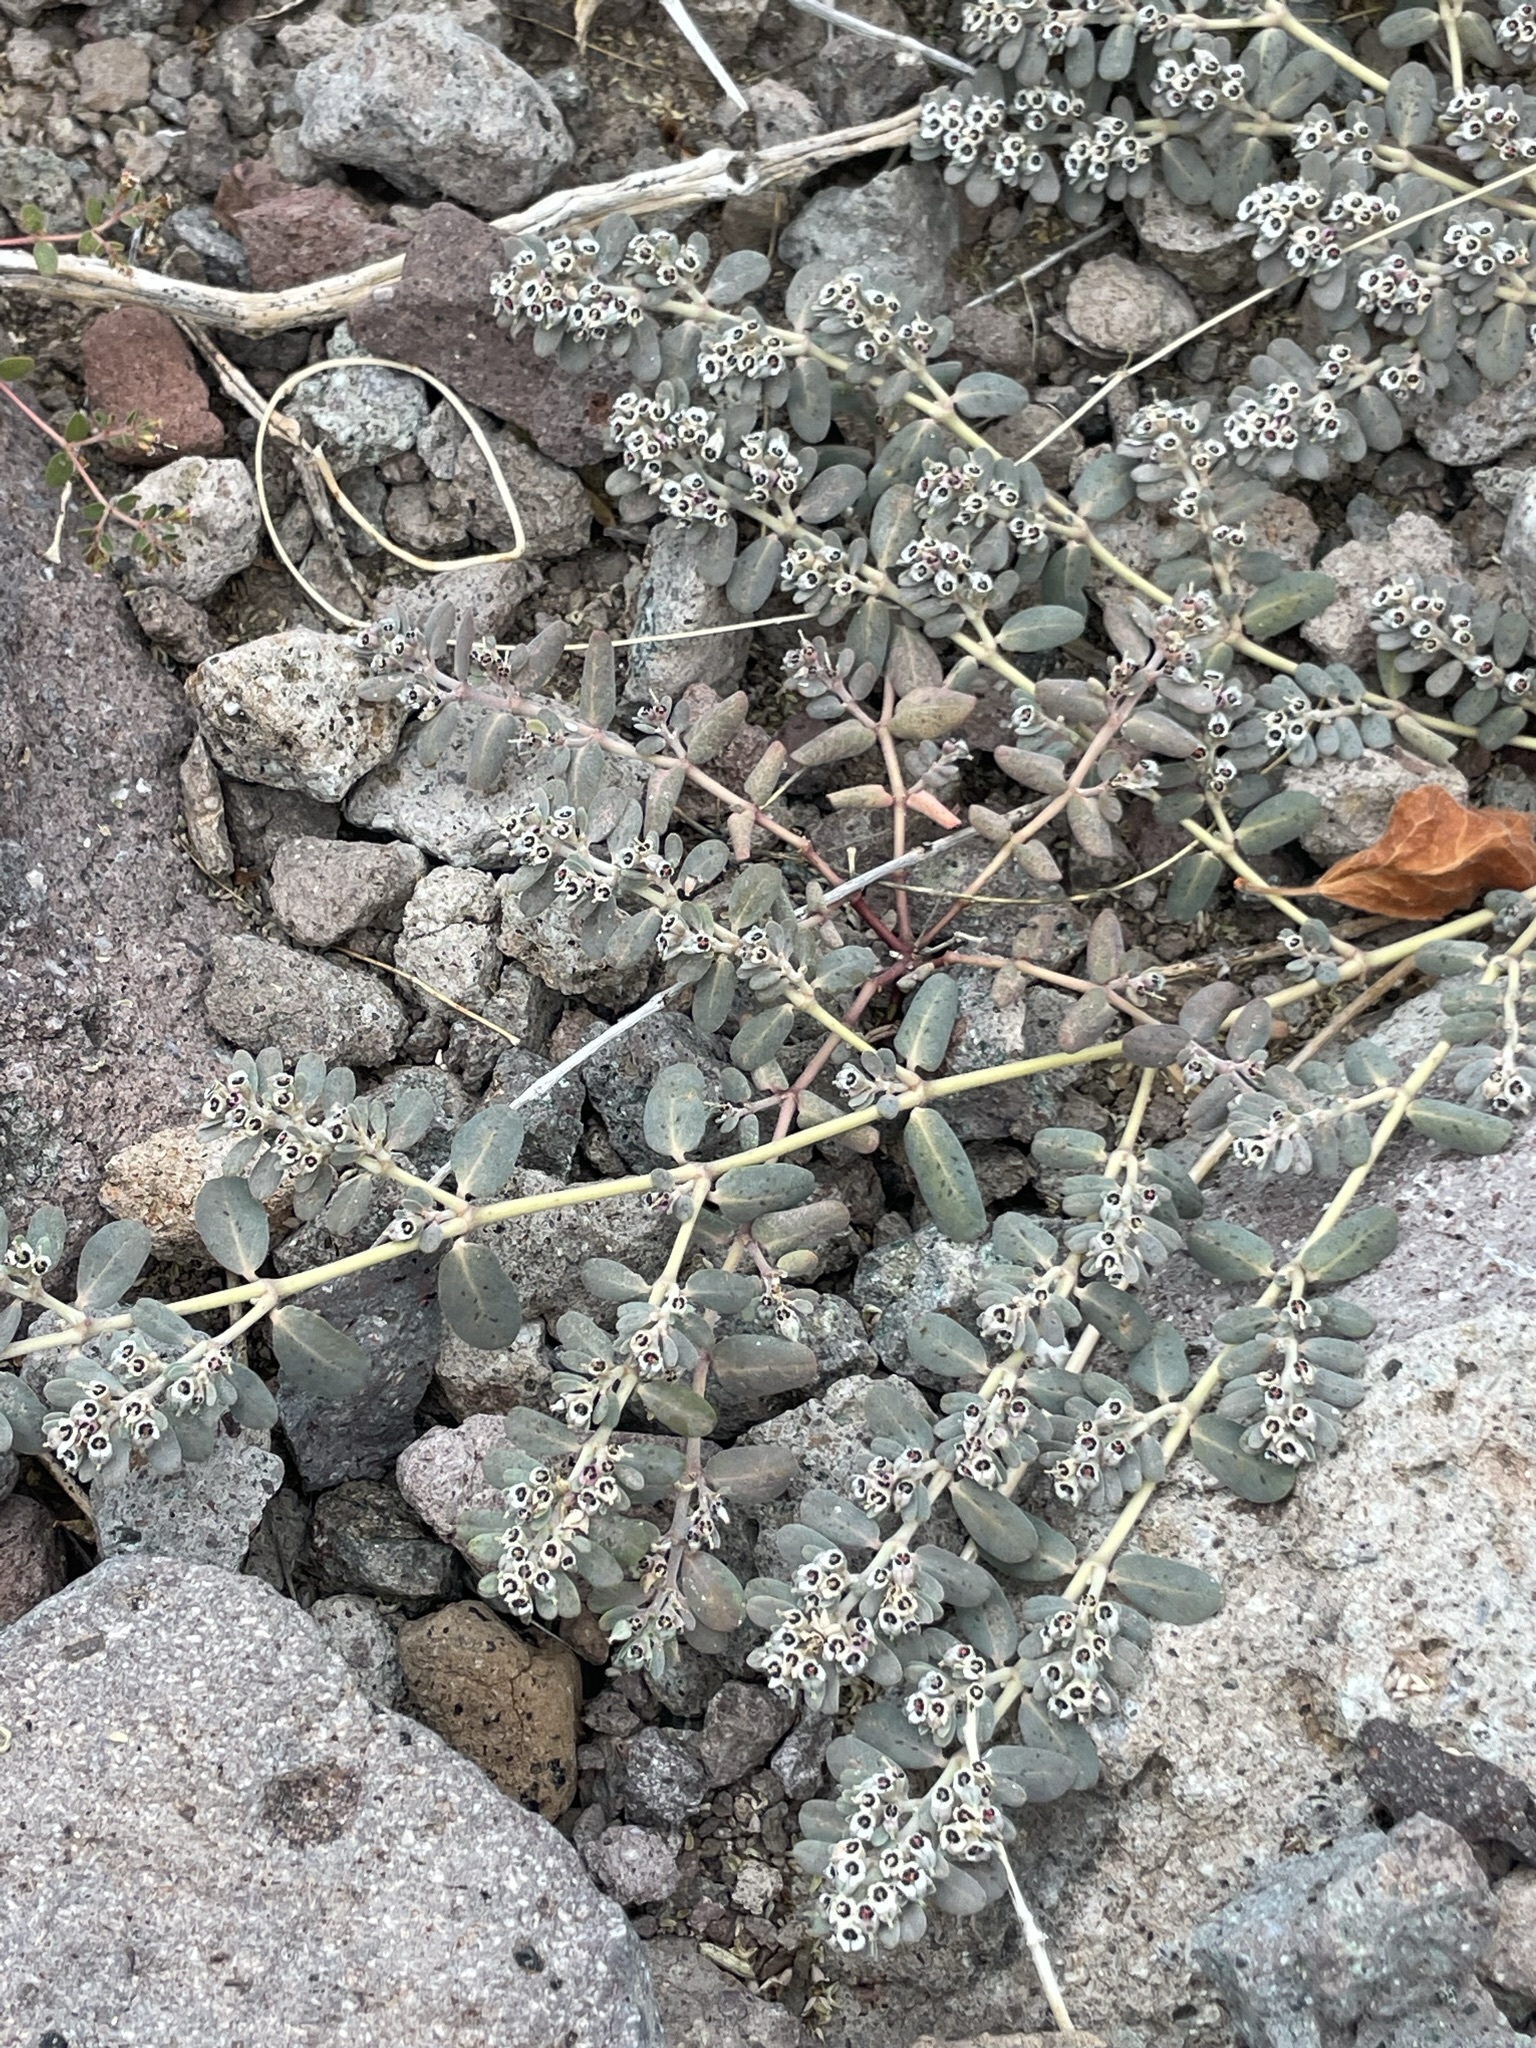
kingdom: Plantae
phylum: Tracheophyta
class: Magnoliopsida
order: Malpighiales
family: Euphorbiaceae
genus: Euphorbia
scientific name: Euphorbia pediculifera
